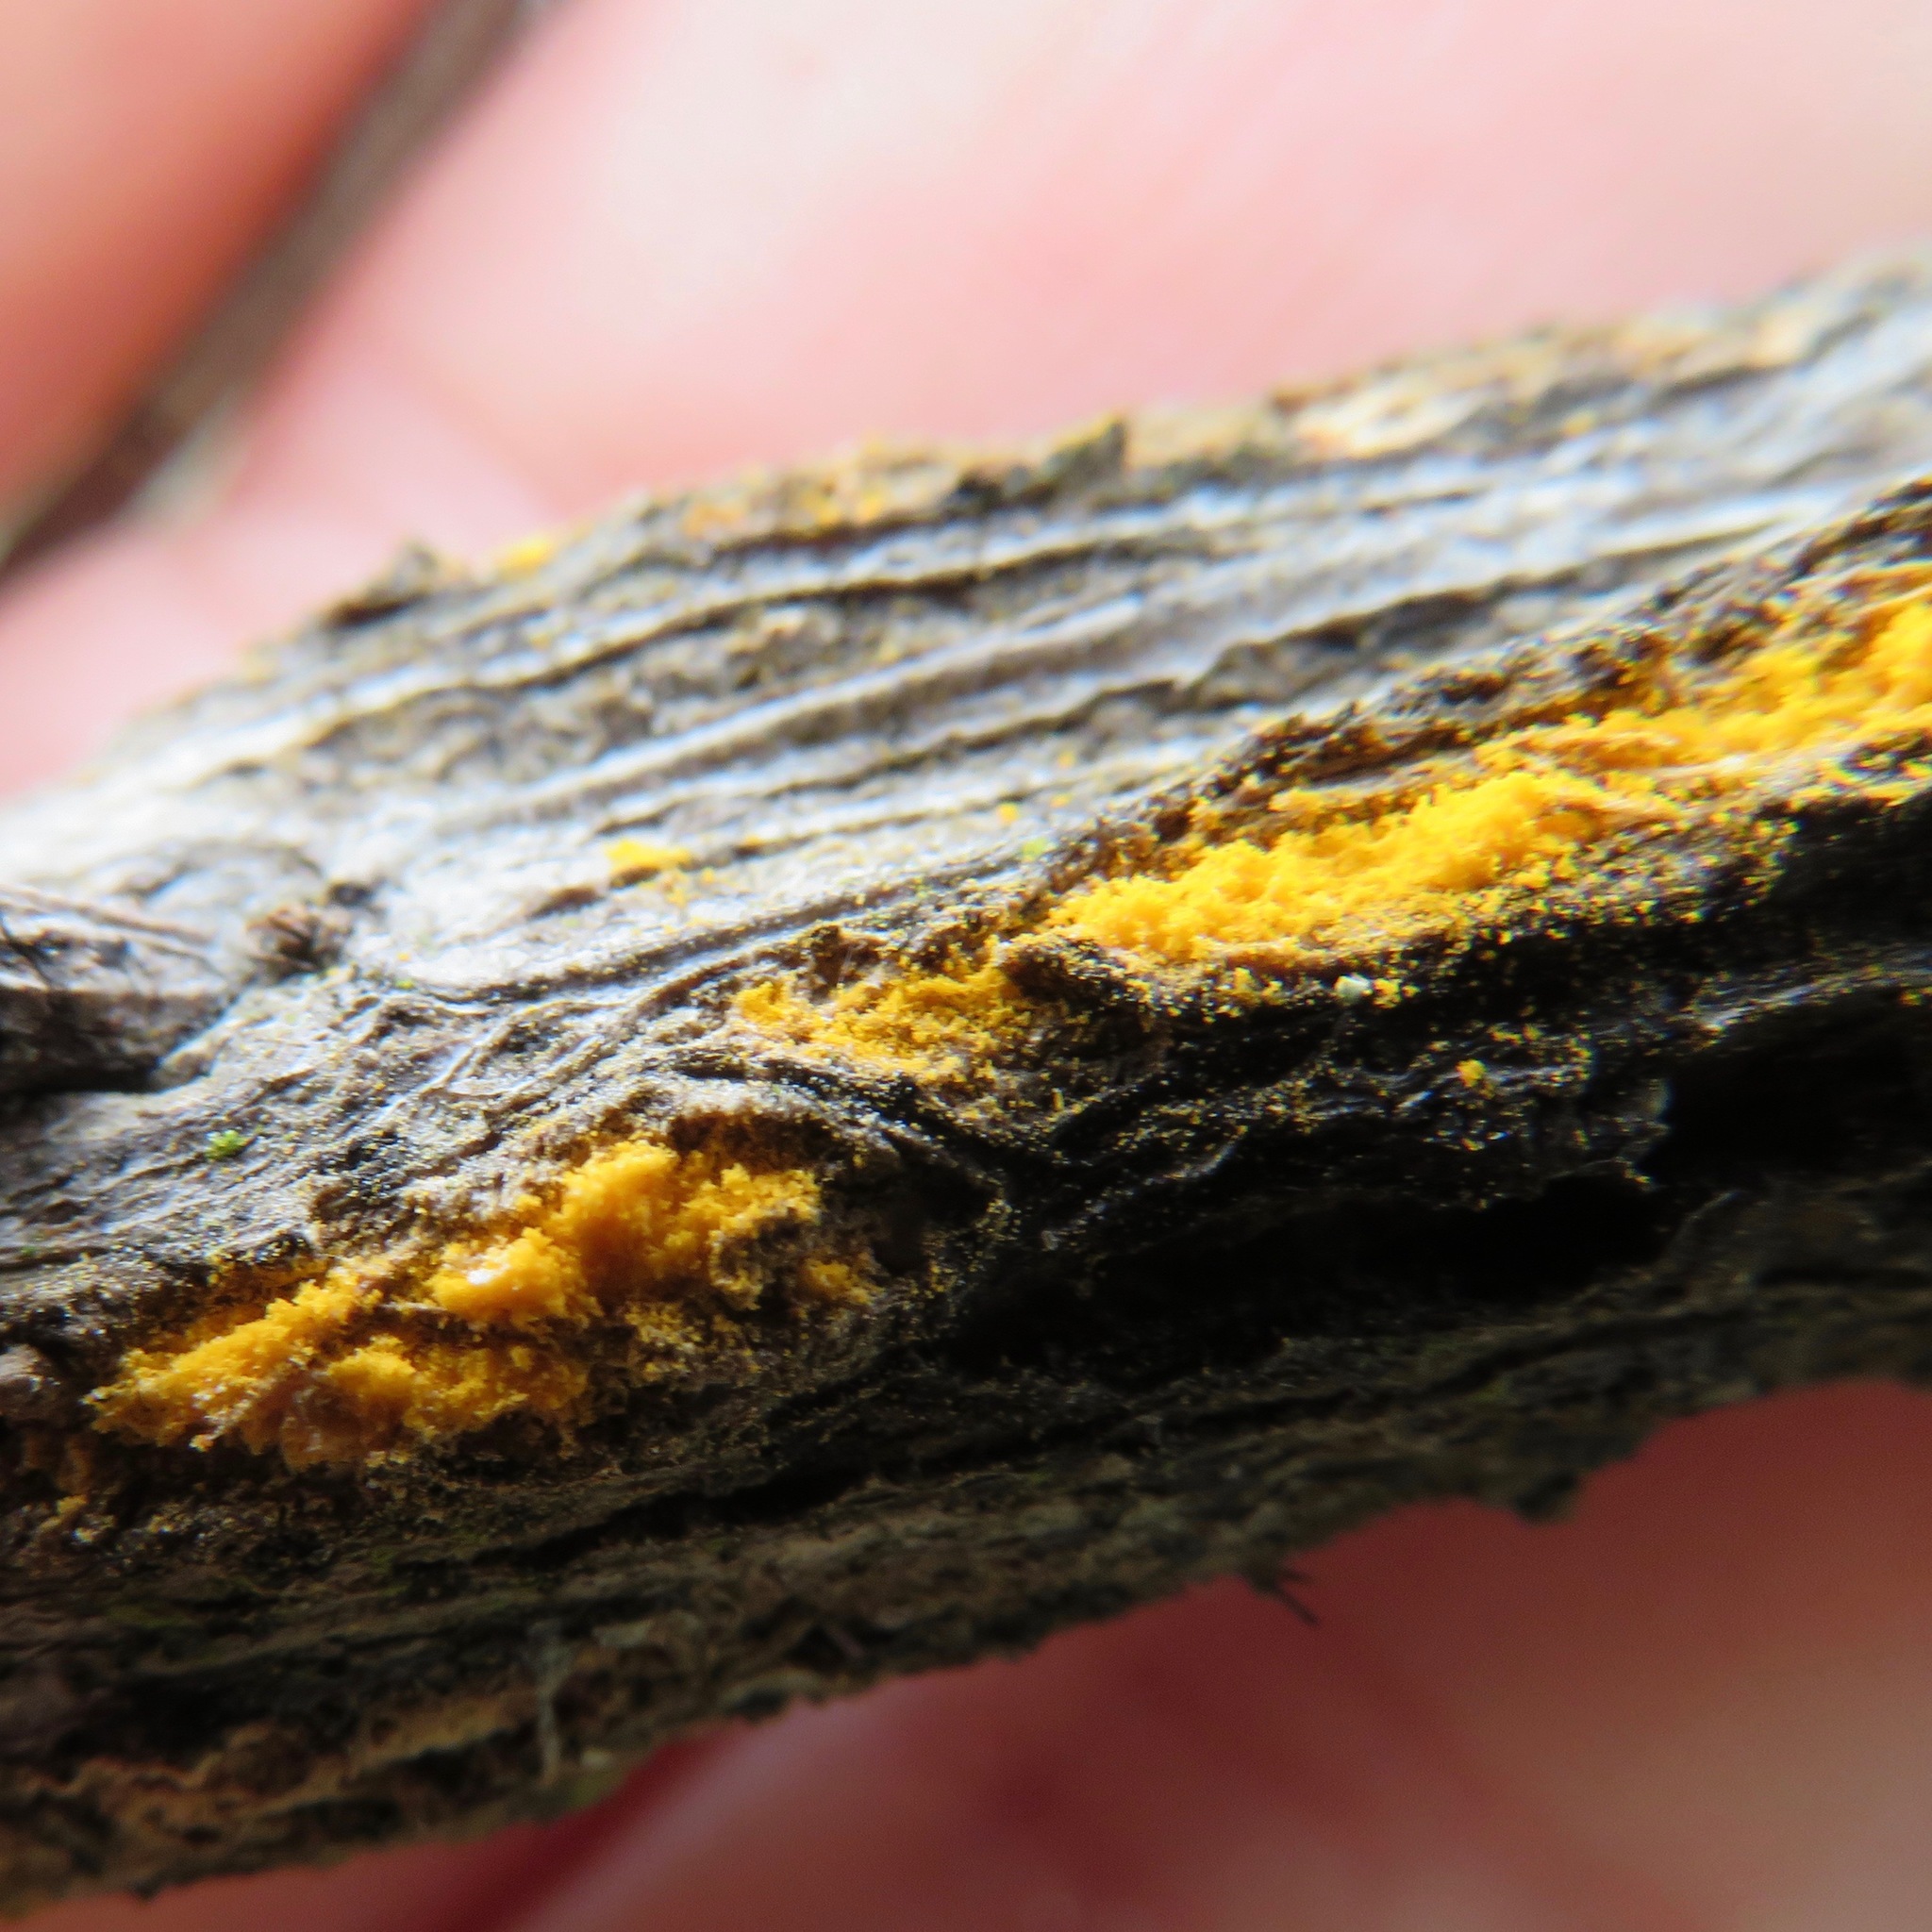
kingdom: Fungi
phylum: Basidiomycota
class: Pucciniomycetes
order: Pucciniales
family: Pucciniaceae
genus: Eriosporangium
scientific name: Eriosporangium evadens
